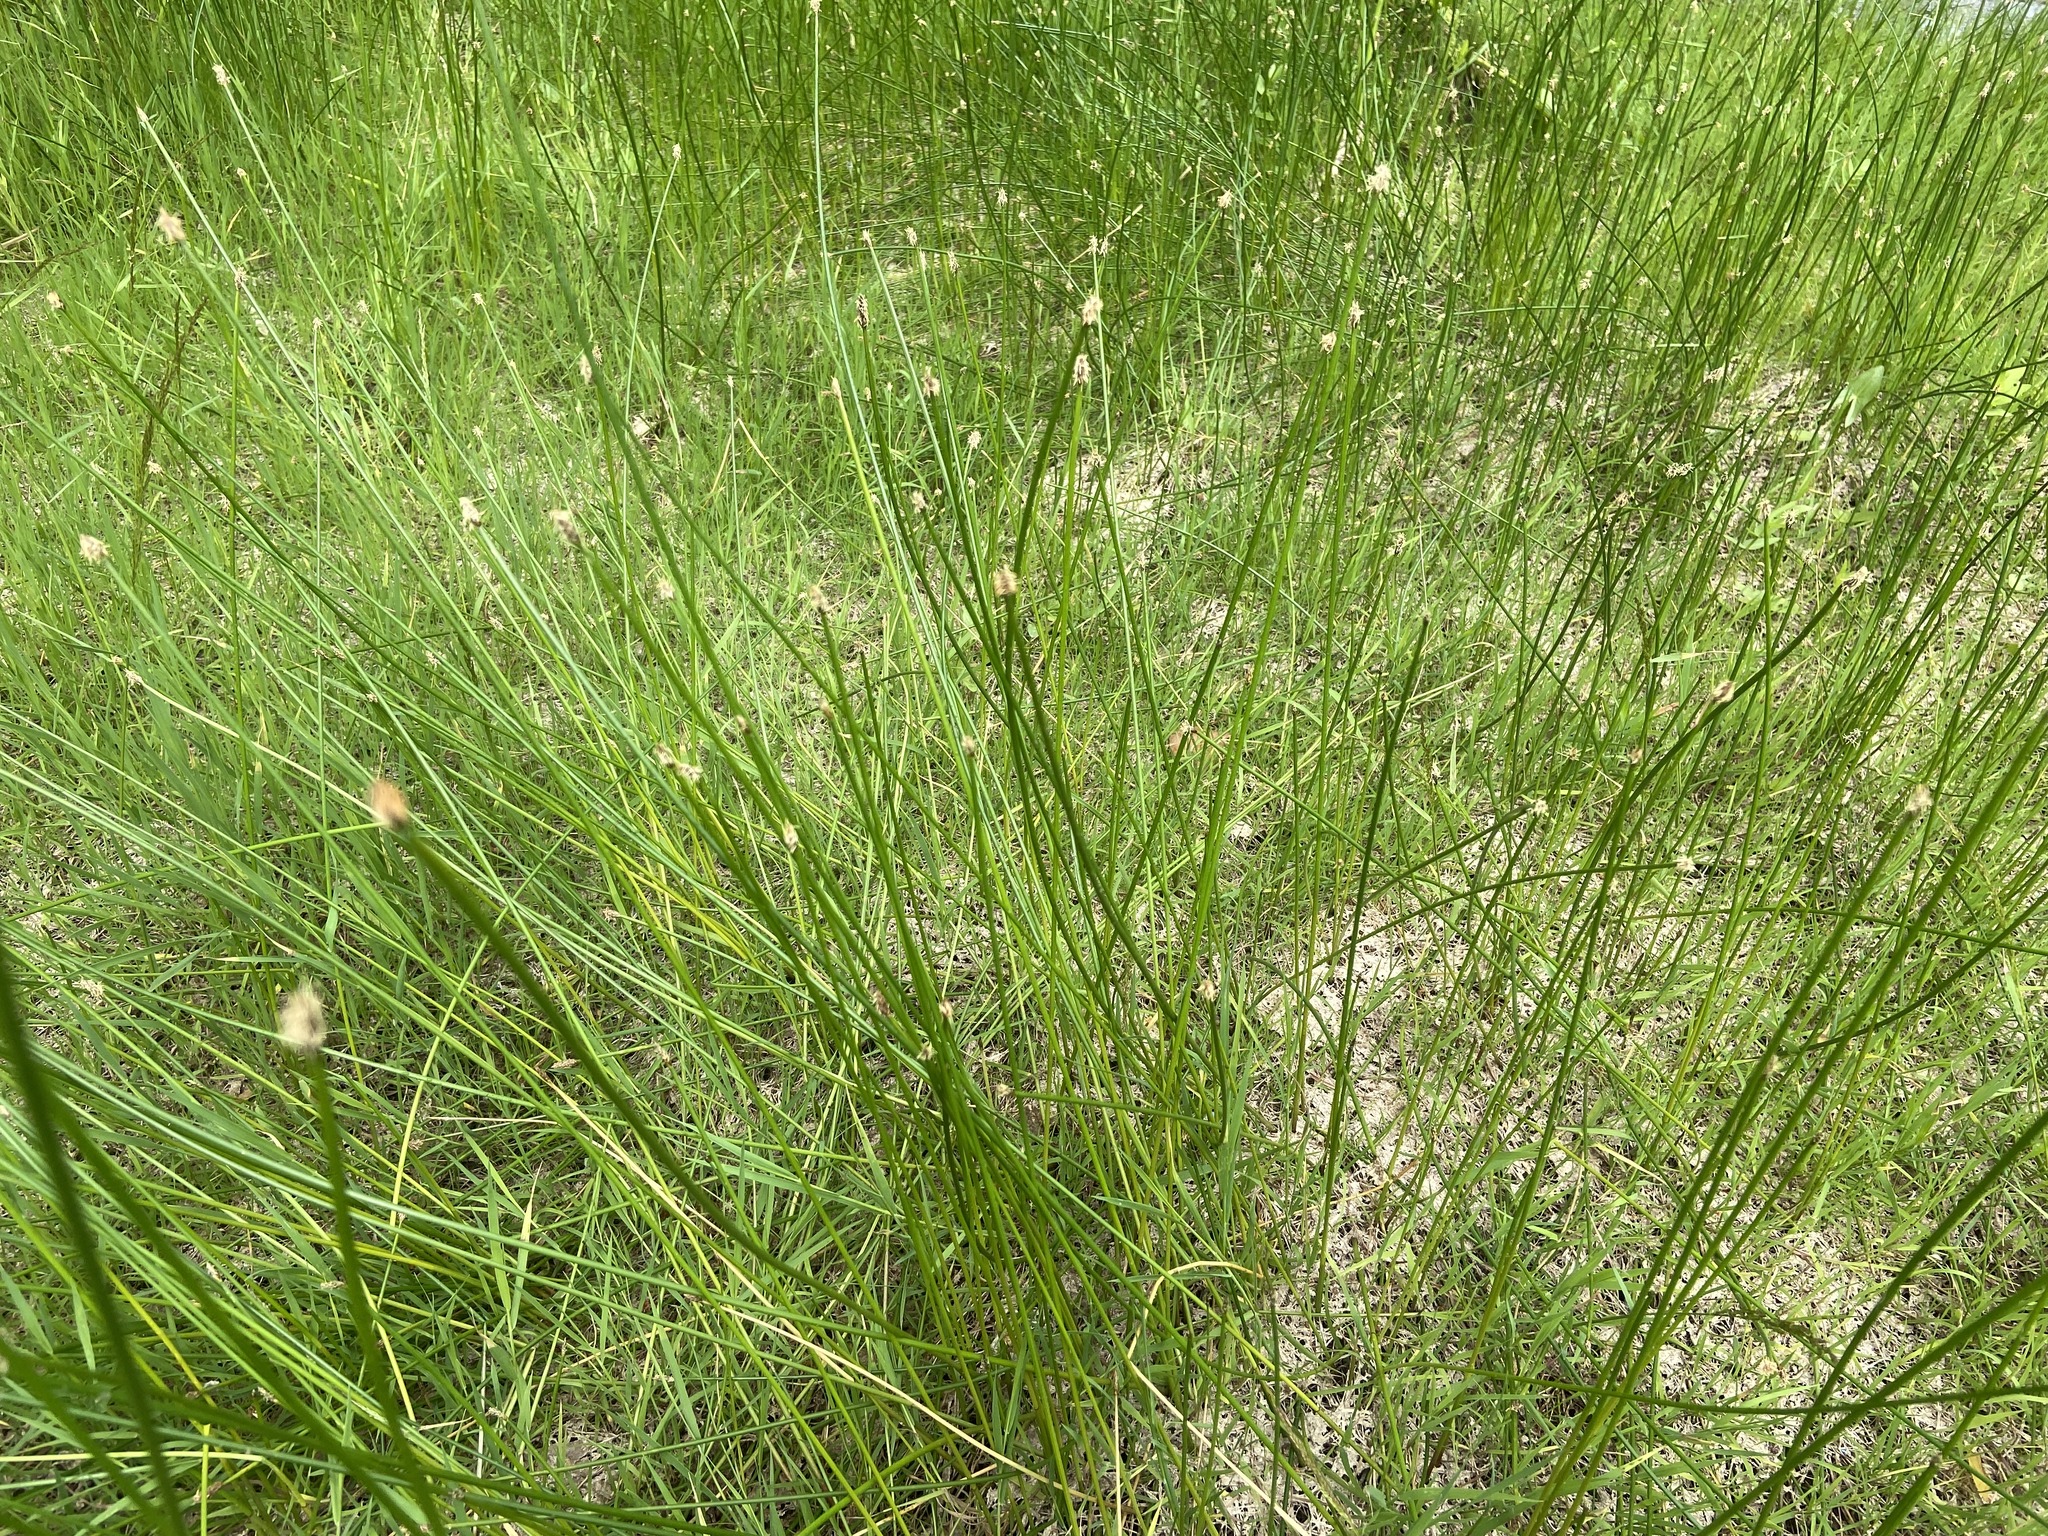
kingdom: Plantae
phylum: Tracheophyta
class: Liliopsida
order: Poales
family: Cyperaceae
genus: Eleocharis
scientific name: Eleocharis palustris
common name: Common spike-rush
